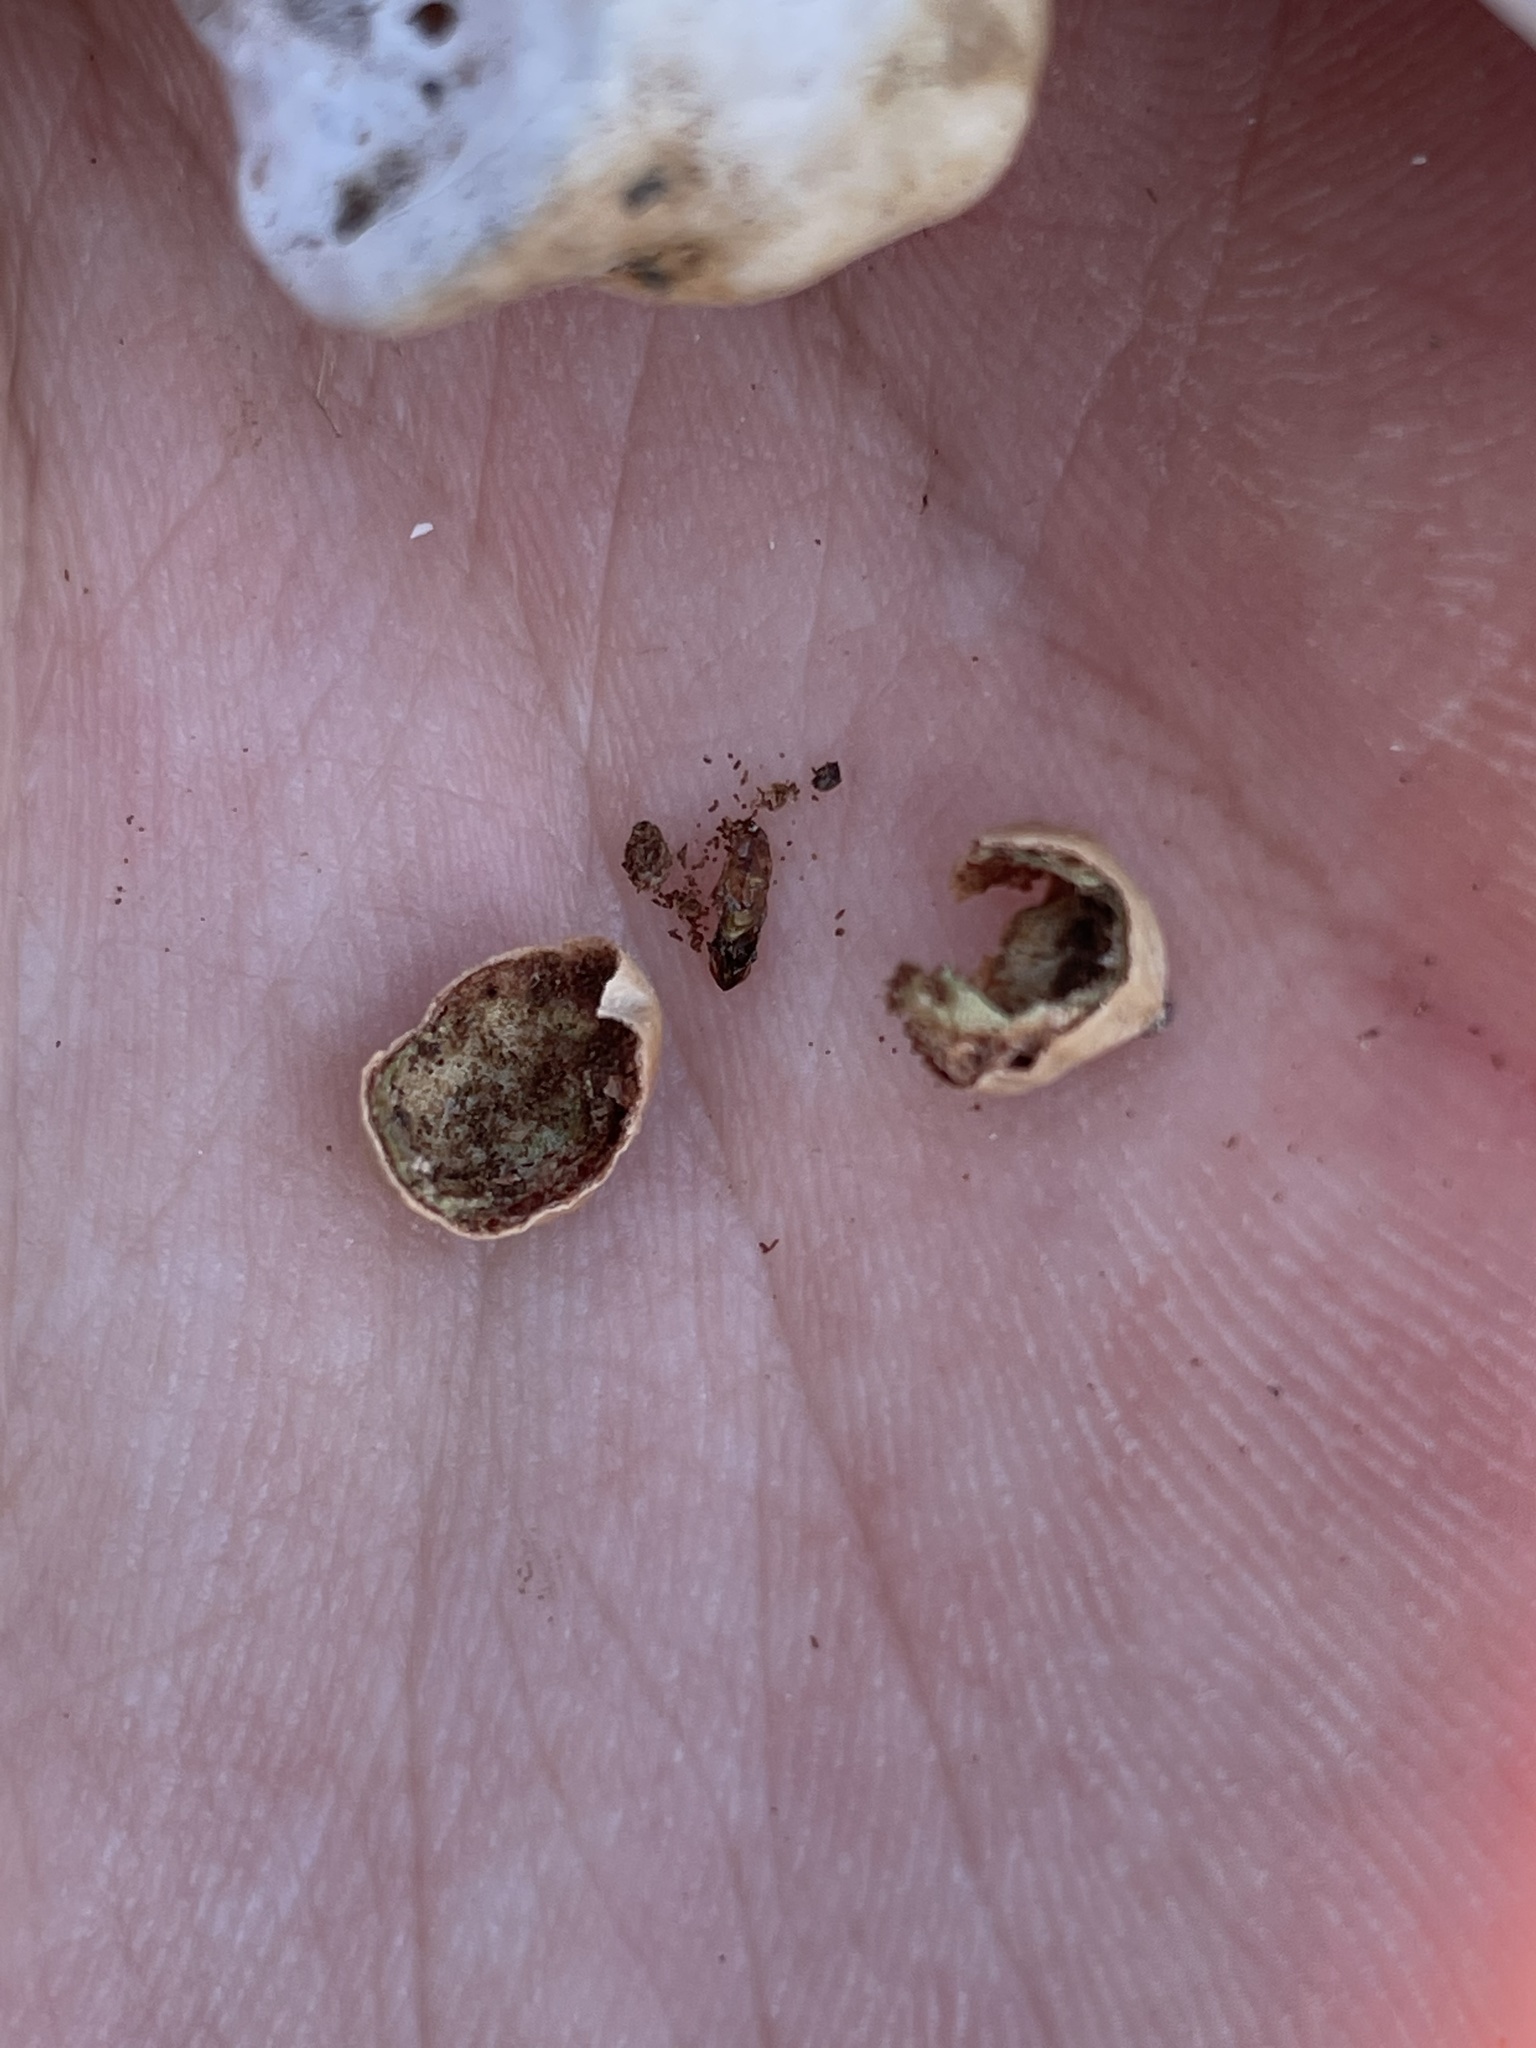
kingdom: Animalia
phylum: Arthropoda
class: Insecta
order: Hymenoptera
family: Cynipidae
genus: Atrusca
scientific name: Atrusca
